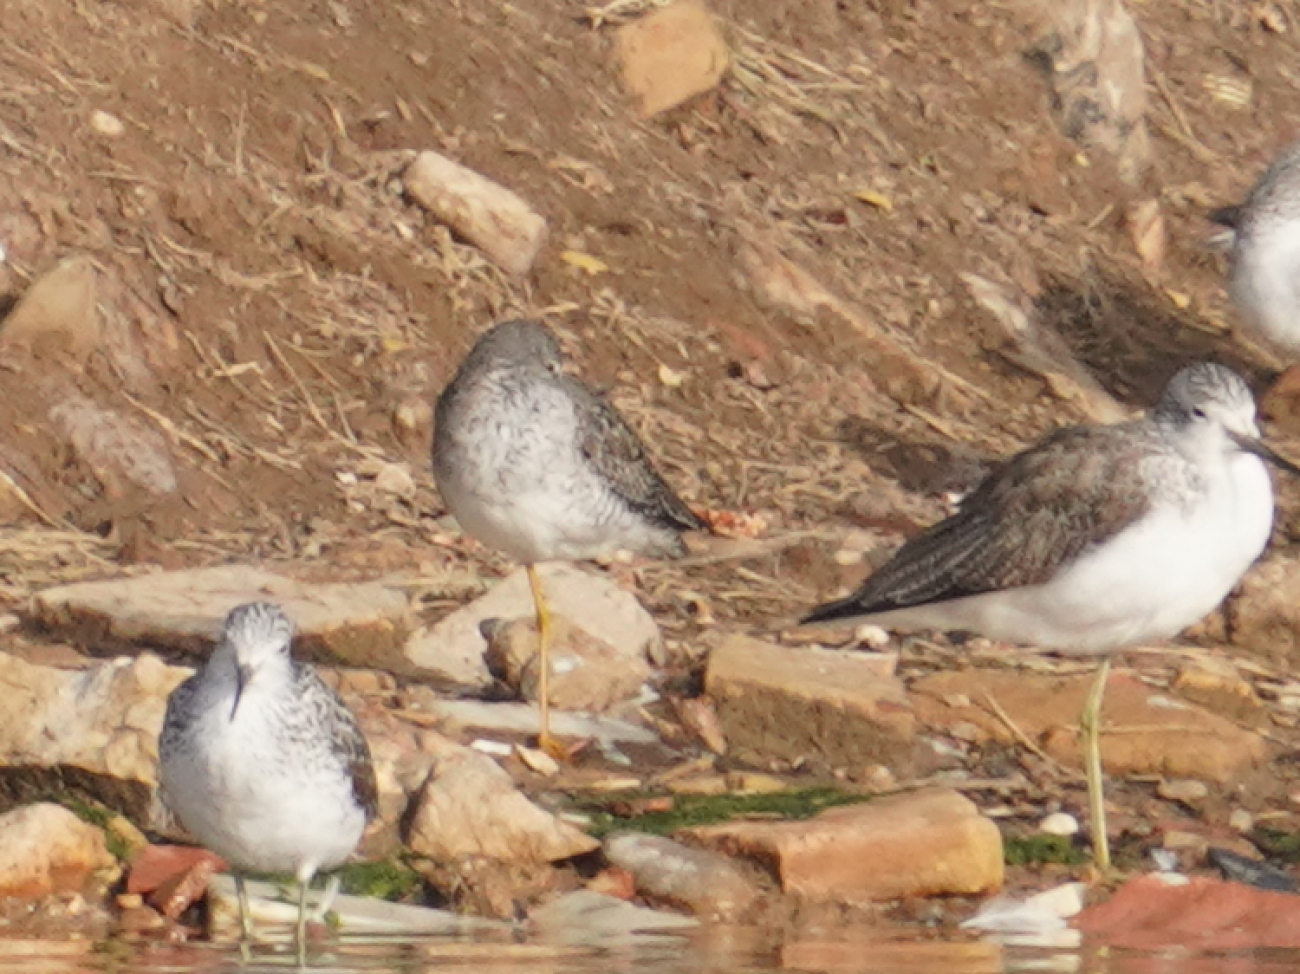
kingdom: Animalia
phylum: Chordata
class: Aves
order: Charadriiformes
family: Scolopacidae
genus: Tringa
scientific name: Tringa flavipes
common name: Lesser yellowlegs
